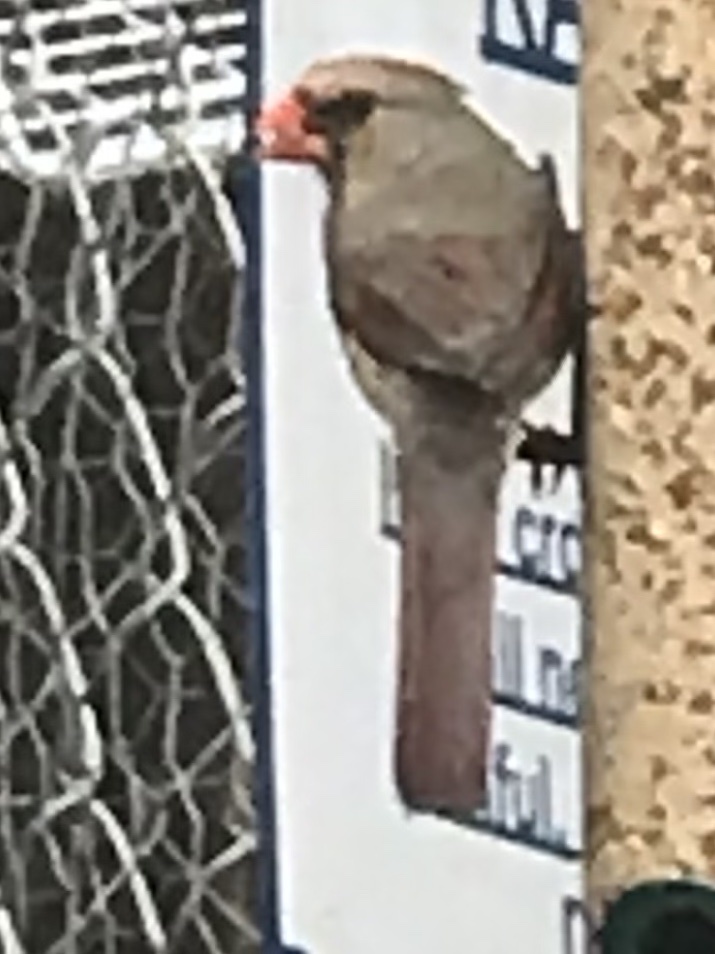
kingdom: Animalia
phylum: Chordata
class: Aves
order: Passeriformes
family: Cardinalidae
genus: Cardinalis
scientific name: Cardinalis cardinalis
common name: Northern cardinal
